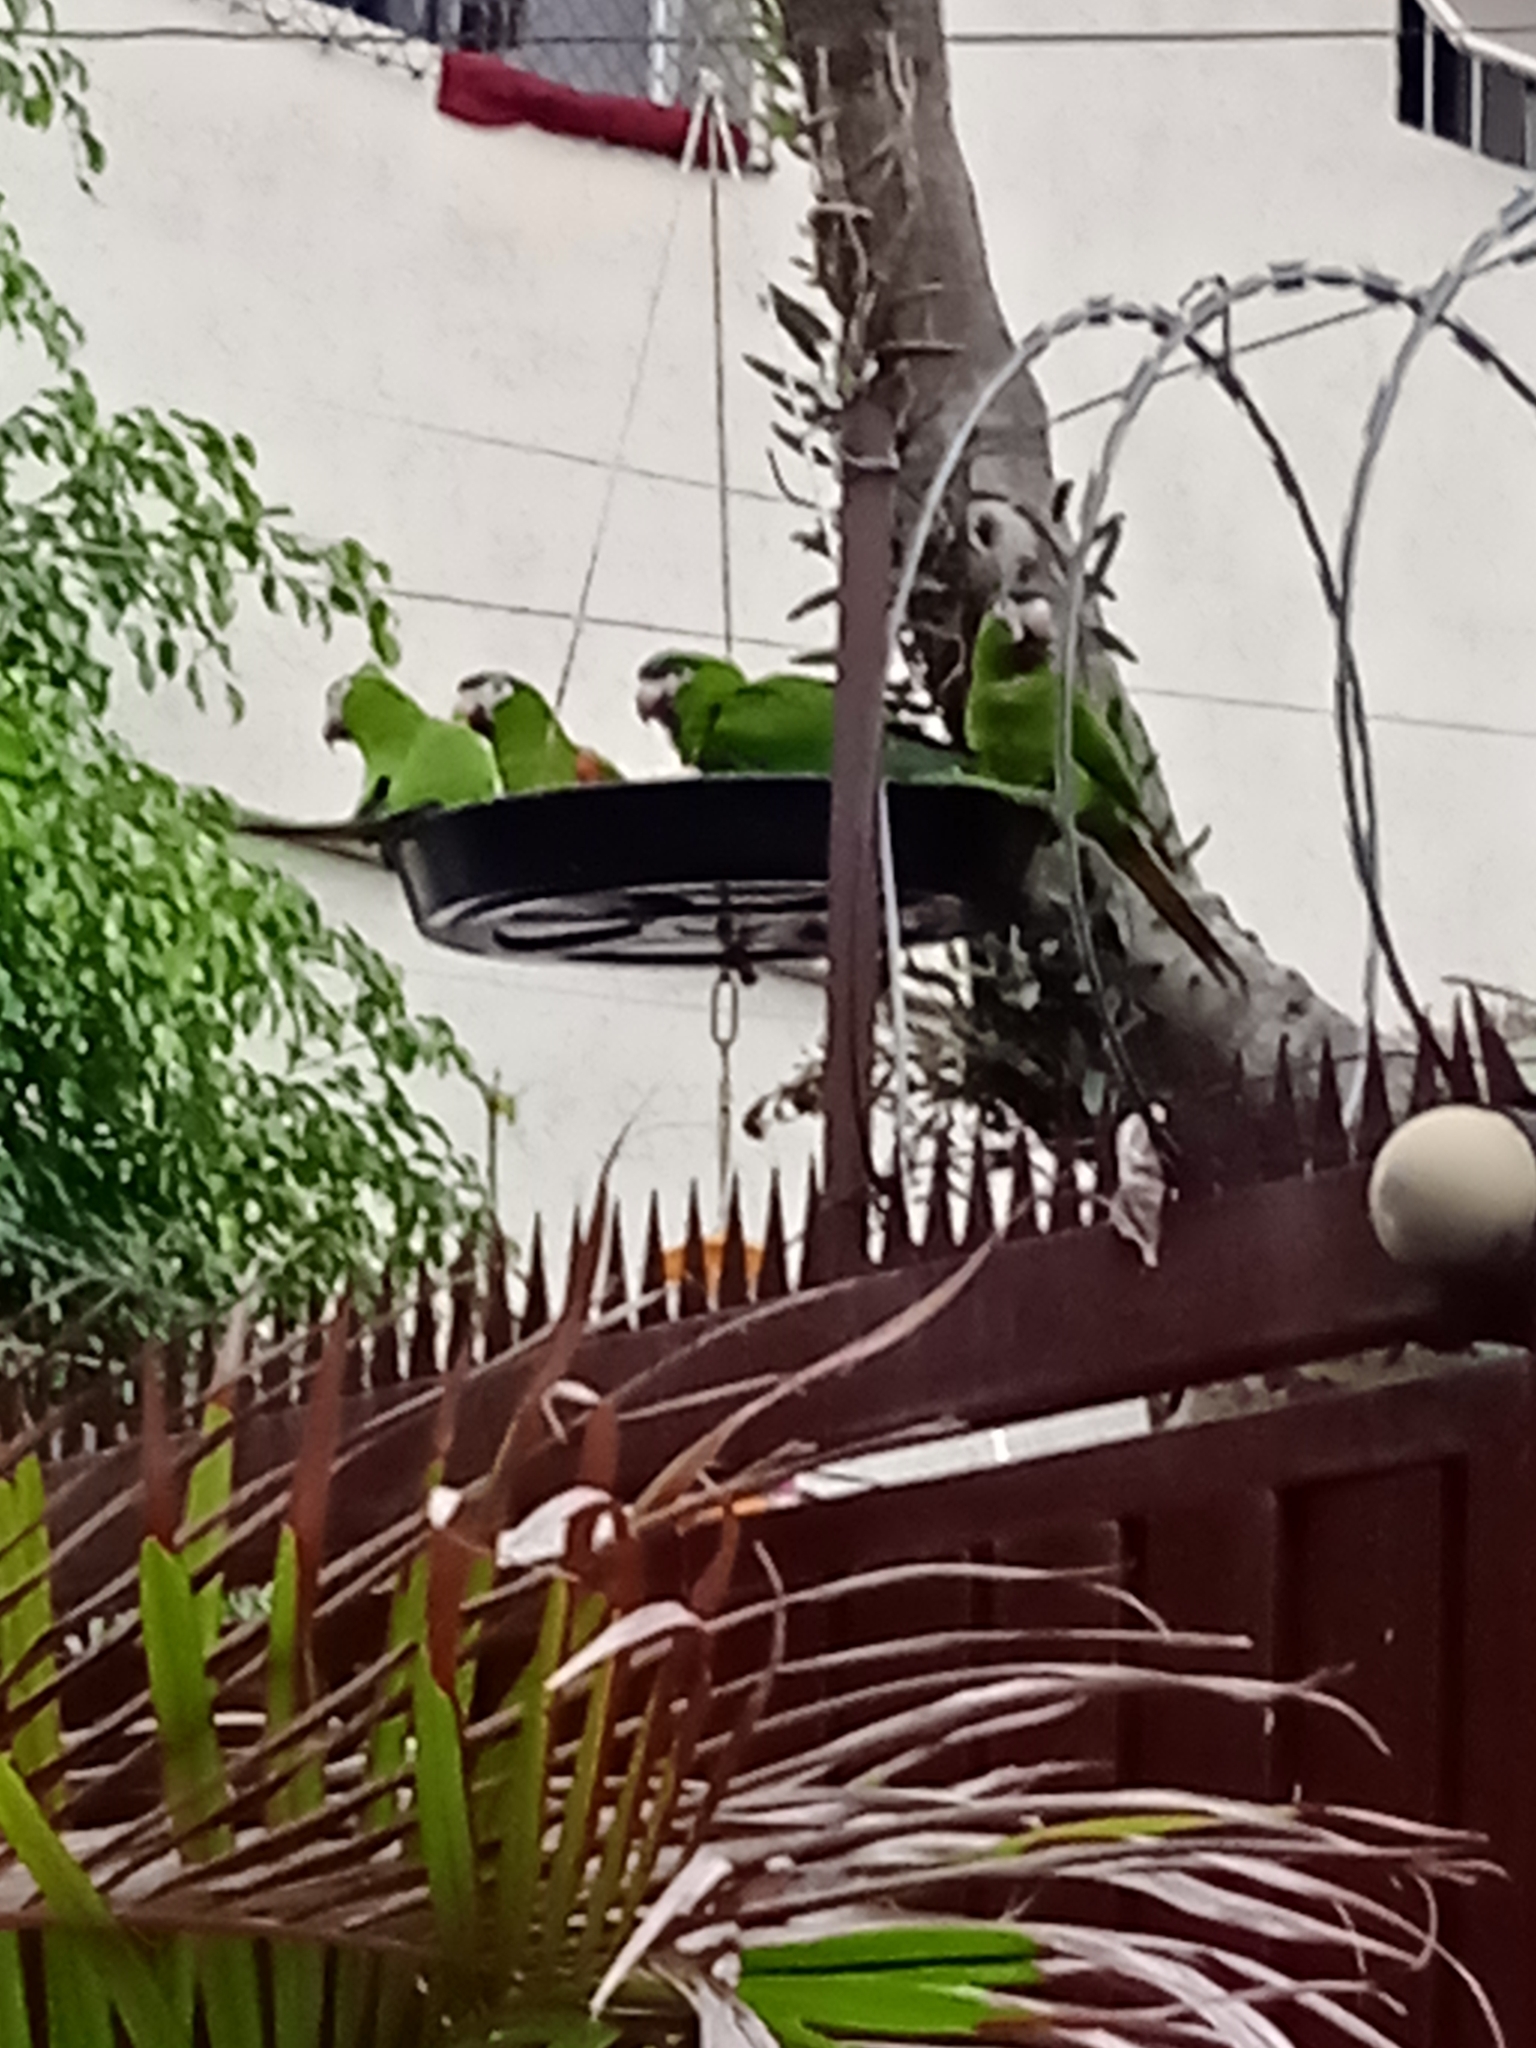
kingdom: Animalia
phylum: Chordata
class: Aves
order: Psittaciformes
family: Psittacidae
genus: Diopsittaca
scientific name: Diopsittaca nobilis
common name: Red-shouldered macaw
